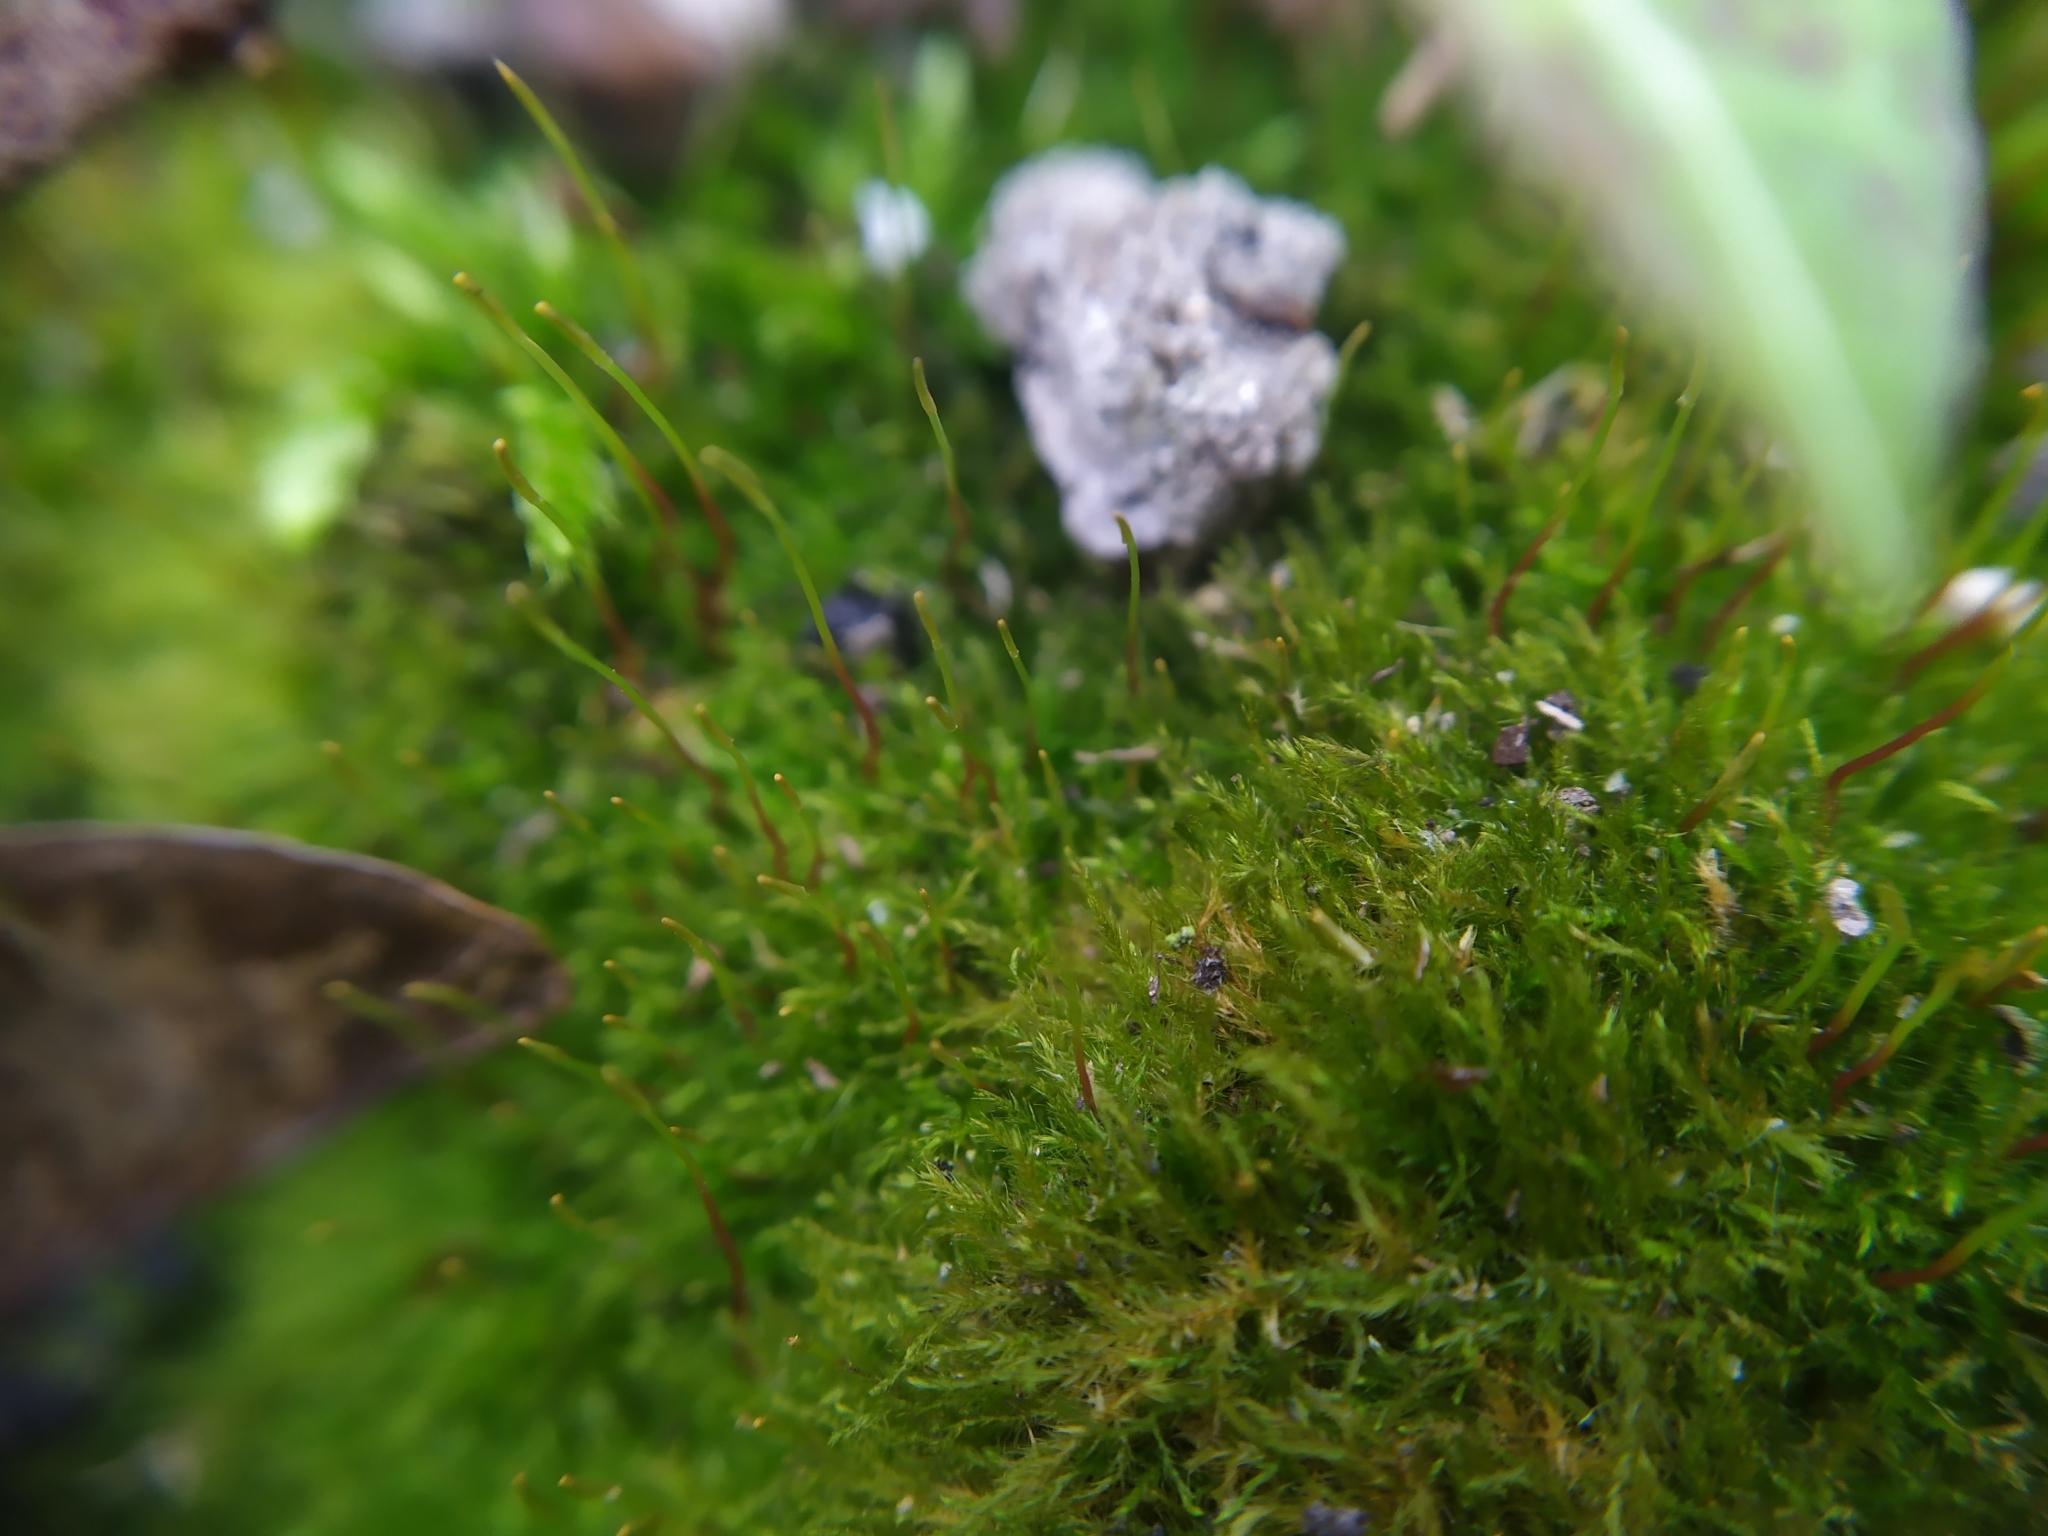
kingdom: Plantae
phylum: Bryophyta
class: Bryopsida
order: Hypnales
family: Amblystegiaceae
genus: Amblystegium
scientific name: Amblystegium serpens
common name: Jurkatzka's feather moss
